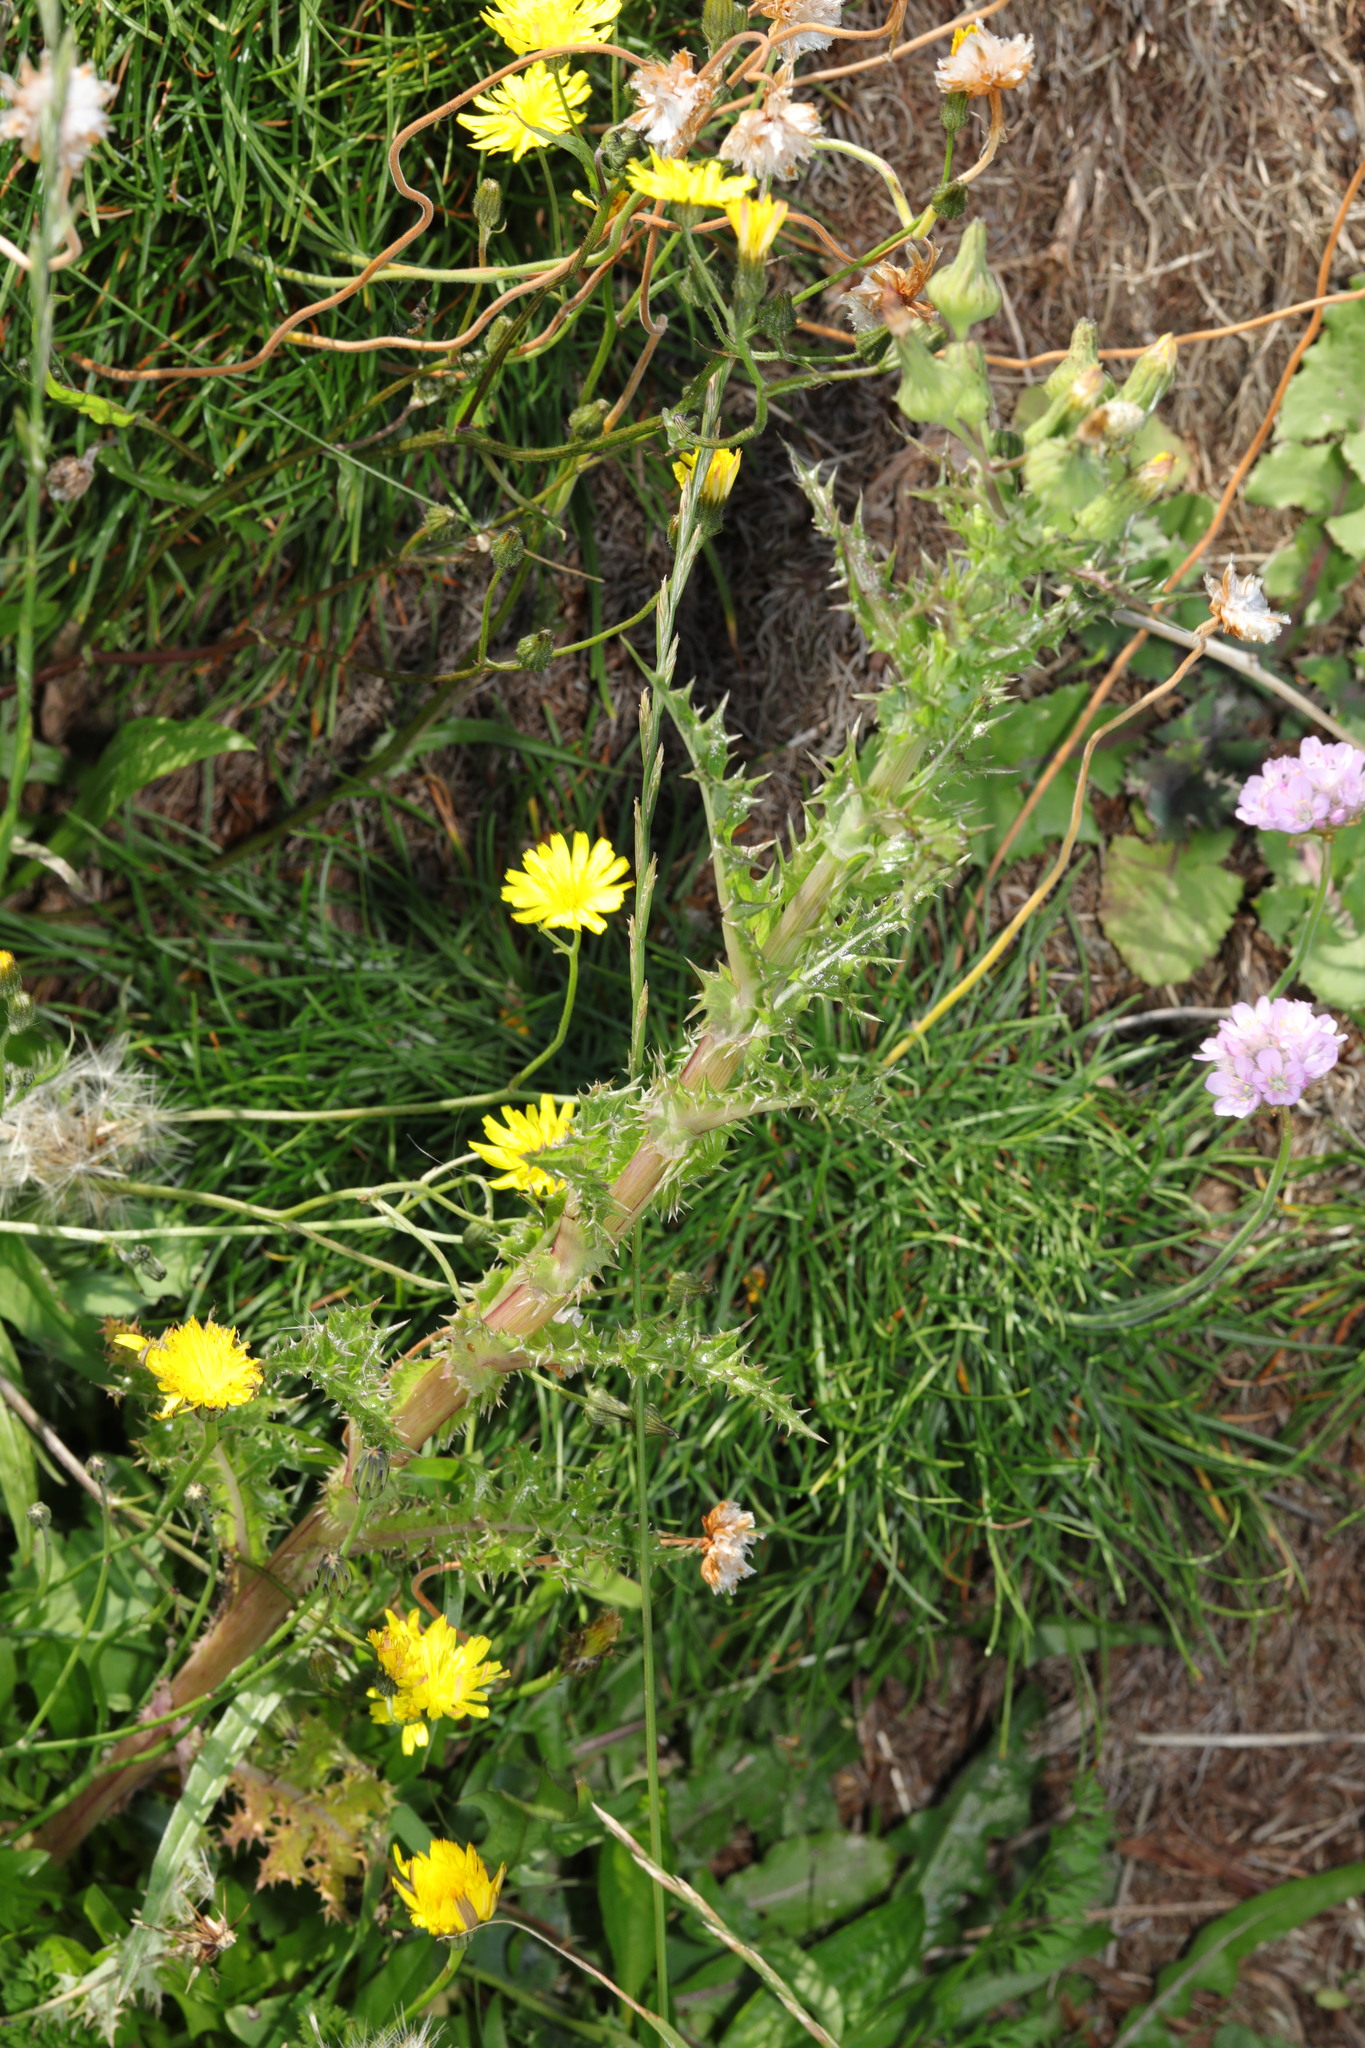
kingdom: Plantae
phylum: Tracheophyta
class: Magnoliopsida
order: Asterales
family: Asteraceae
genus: Sonchus
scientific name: Sonchus asper
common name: Prickly sow-thistle
